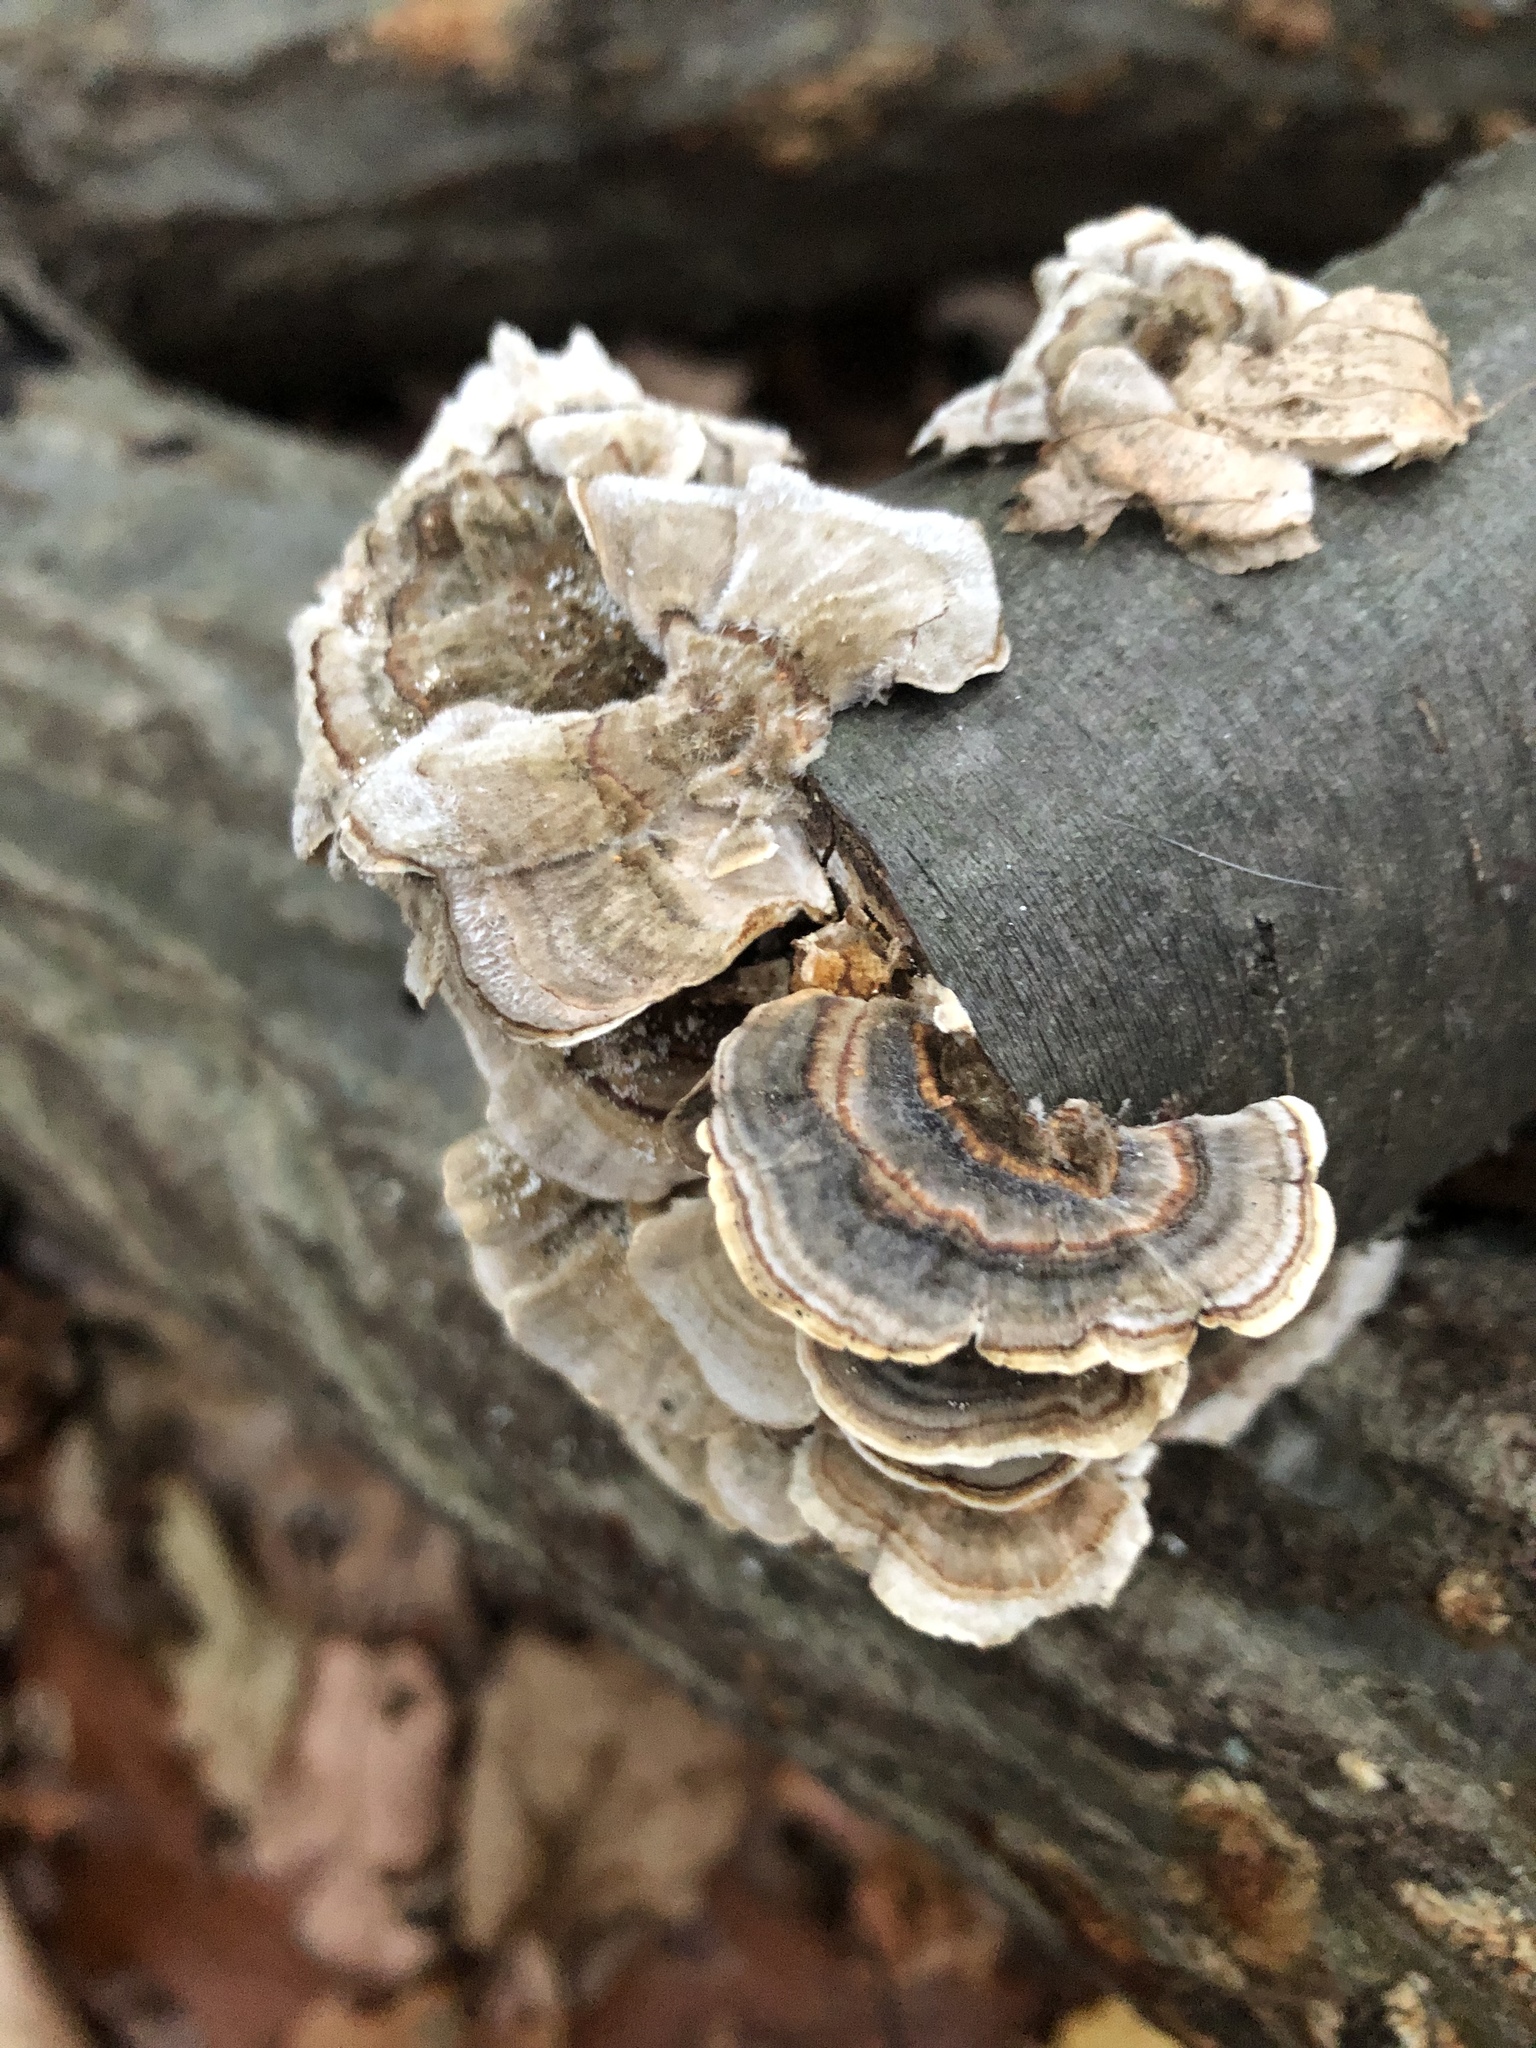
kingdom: Fungi
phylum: Basidiomycota
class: Agaricomycetes
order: Polyporales
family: Polyporaceae
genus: Trametes
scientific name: Trametes versicolor
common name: Turkeytail
